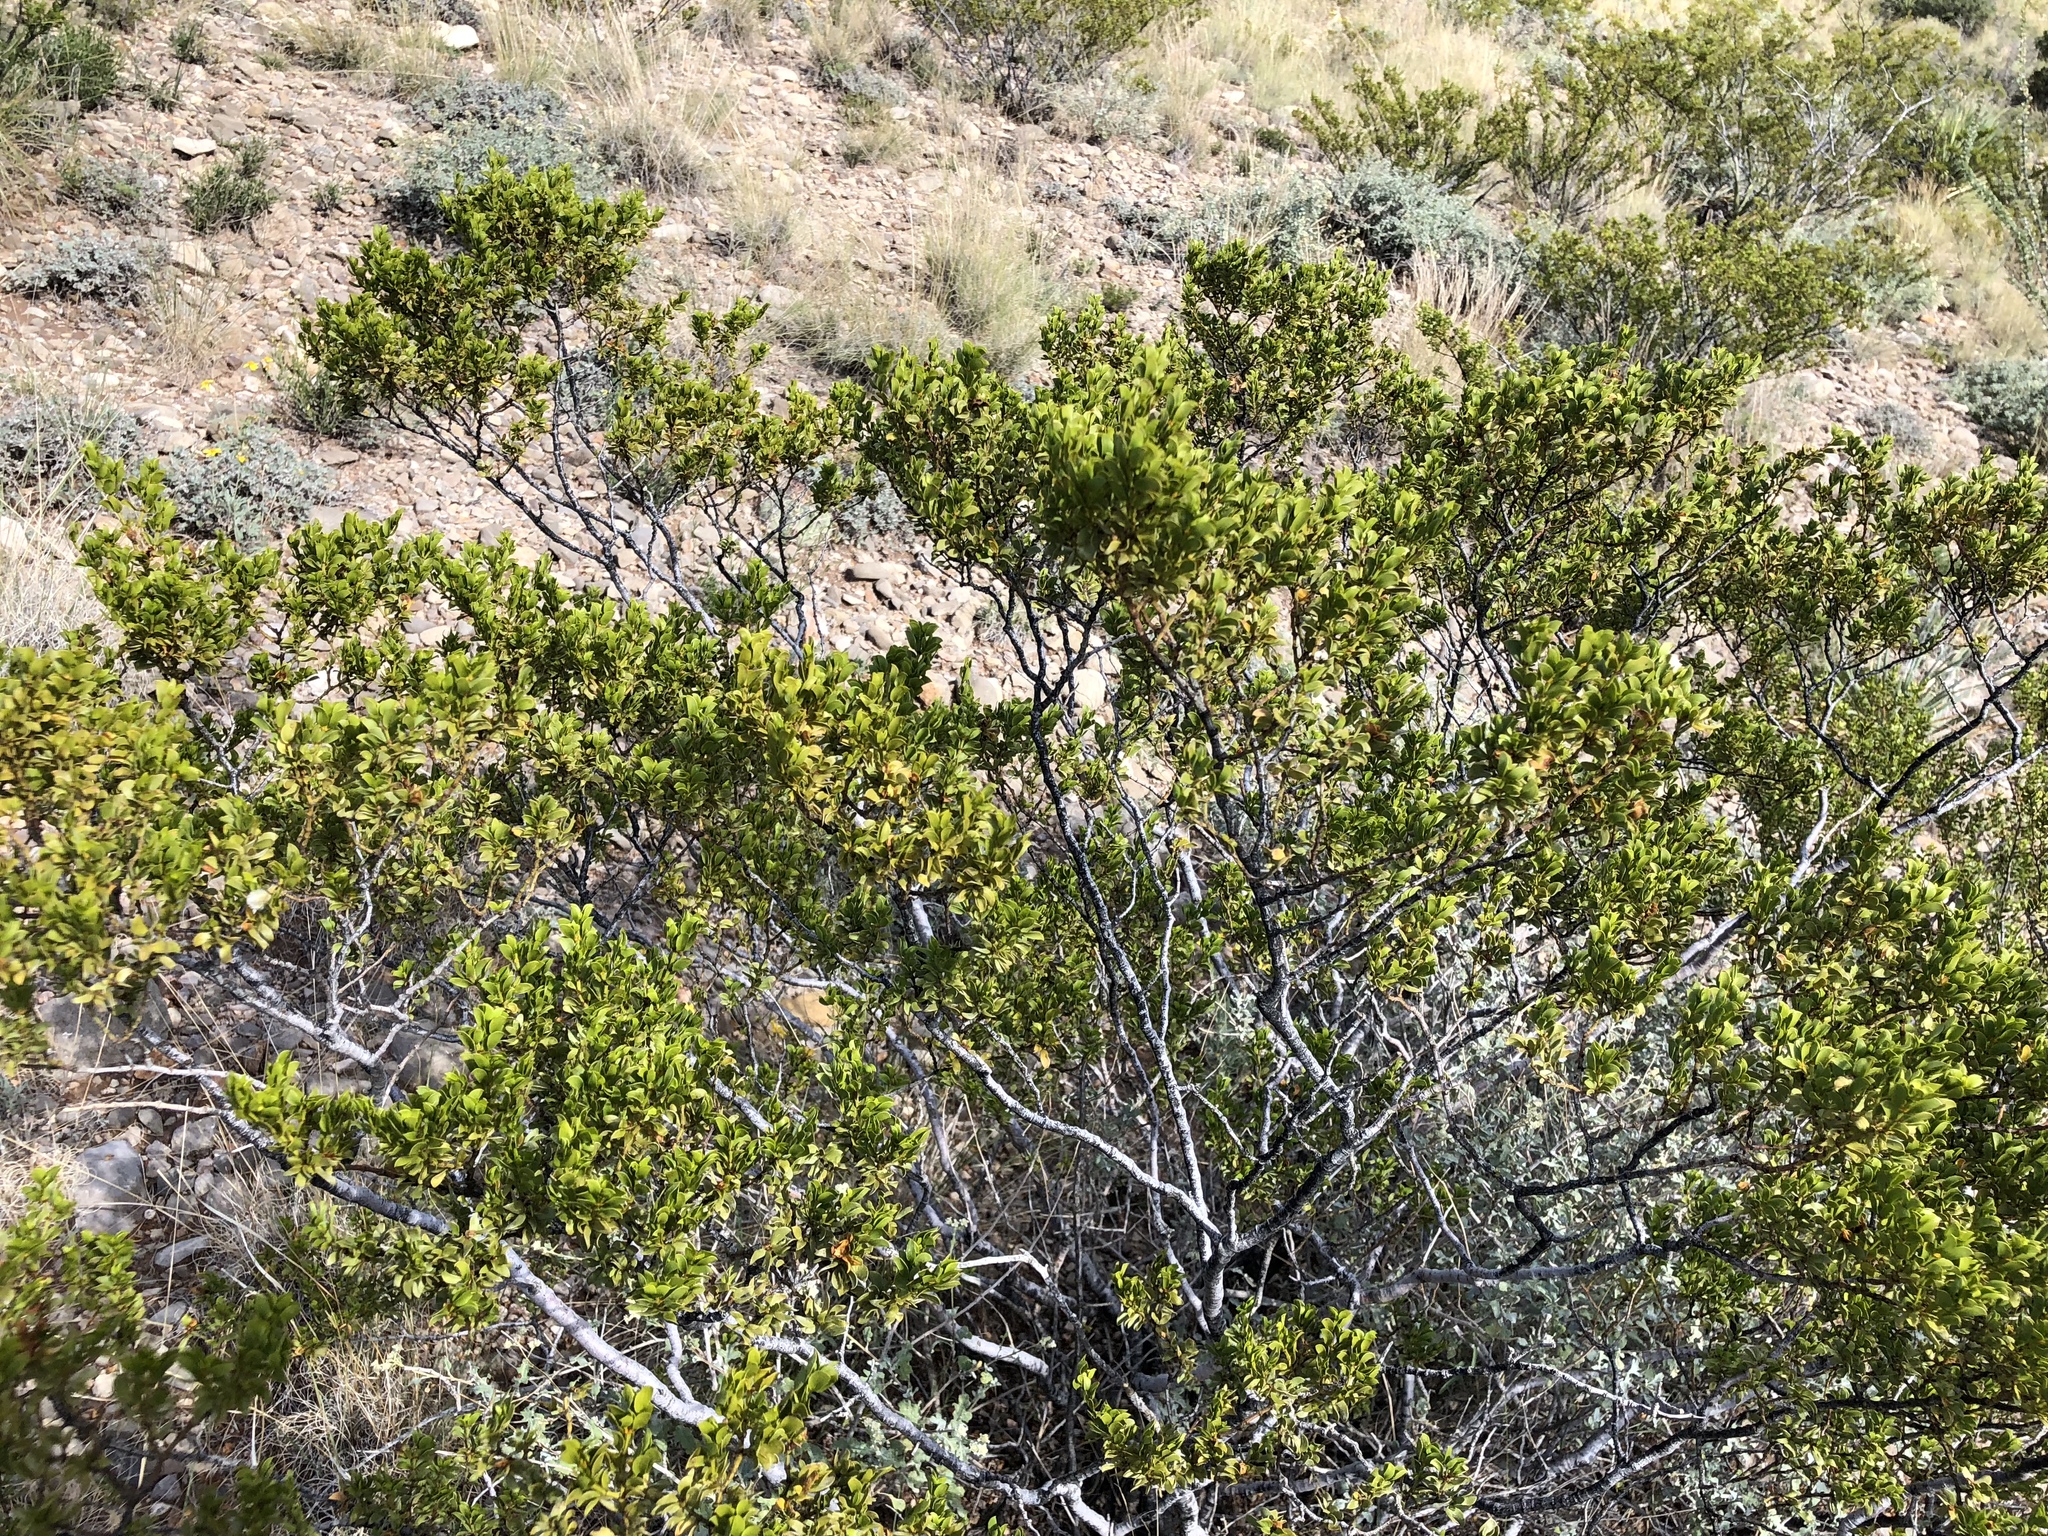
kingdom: Plantae
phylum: Tracheophyta
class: Magnoliopsida
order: Zygophyllales
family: Zygophyllaceae
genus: Larrea
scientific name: Larrea tridentata
